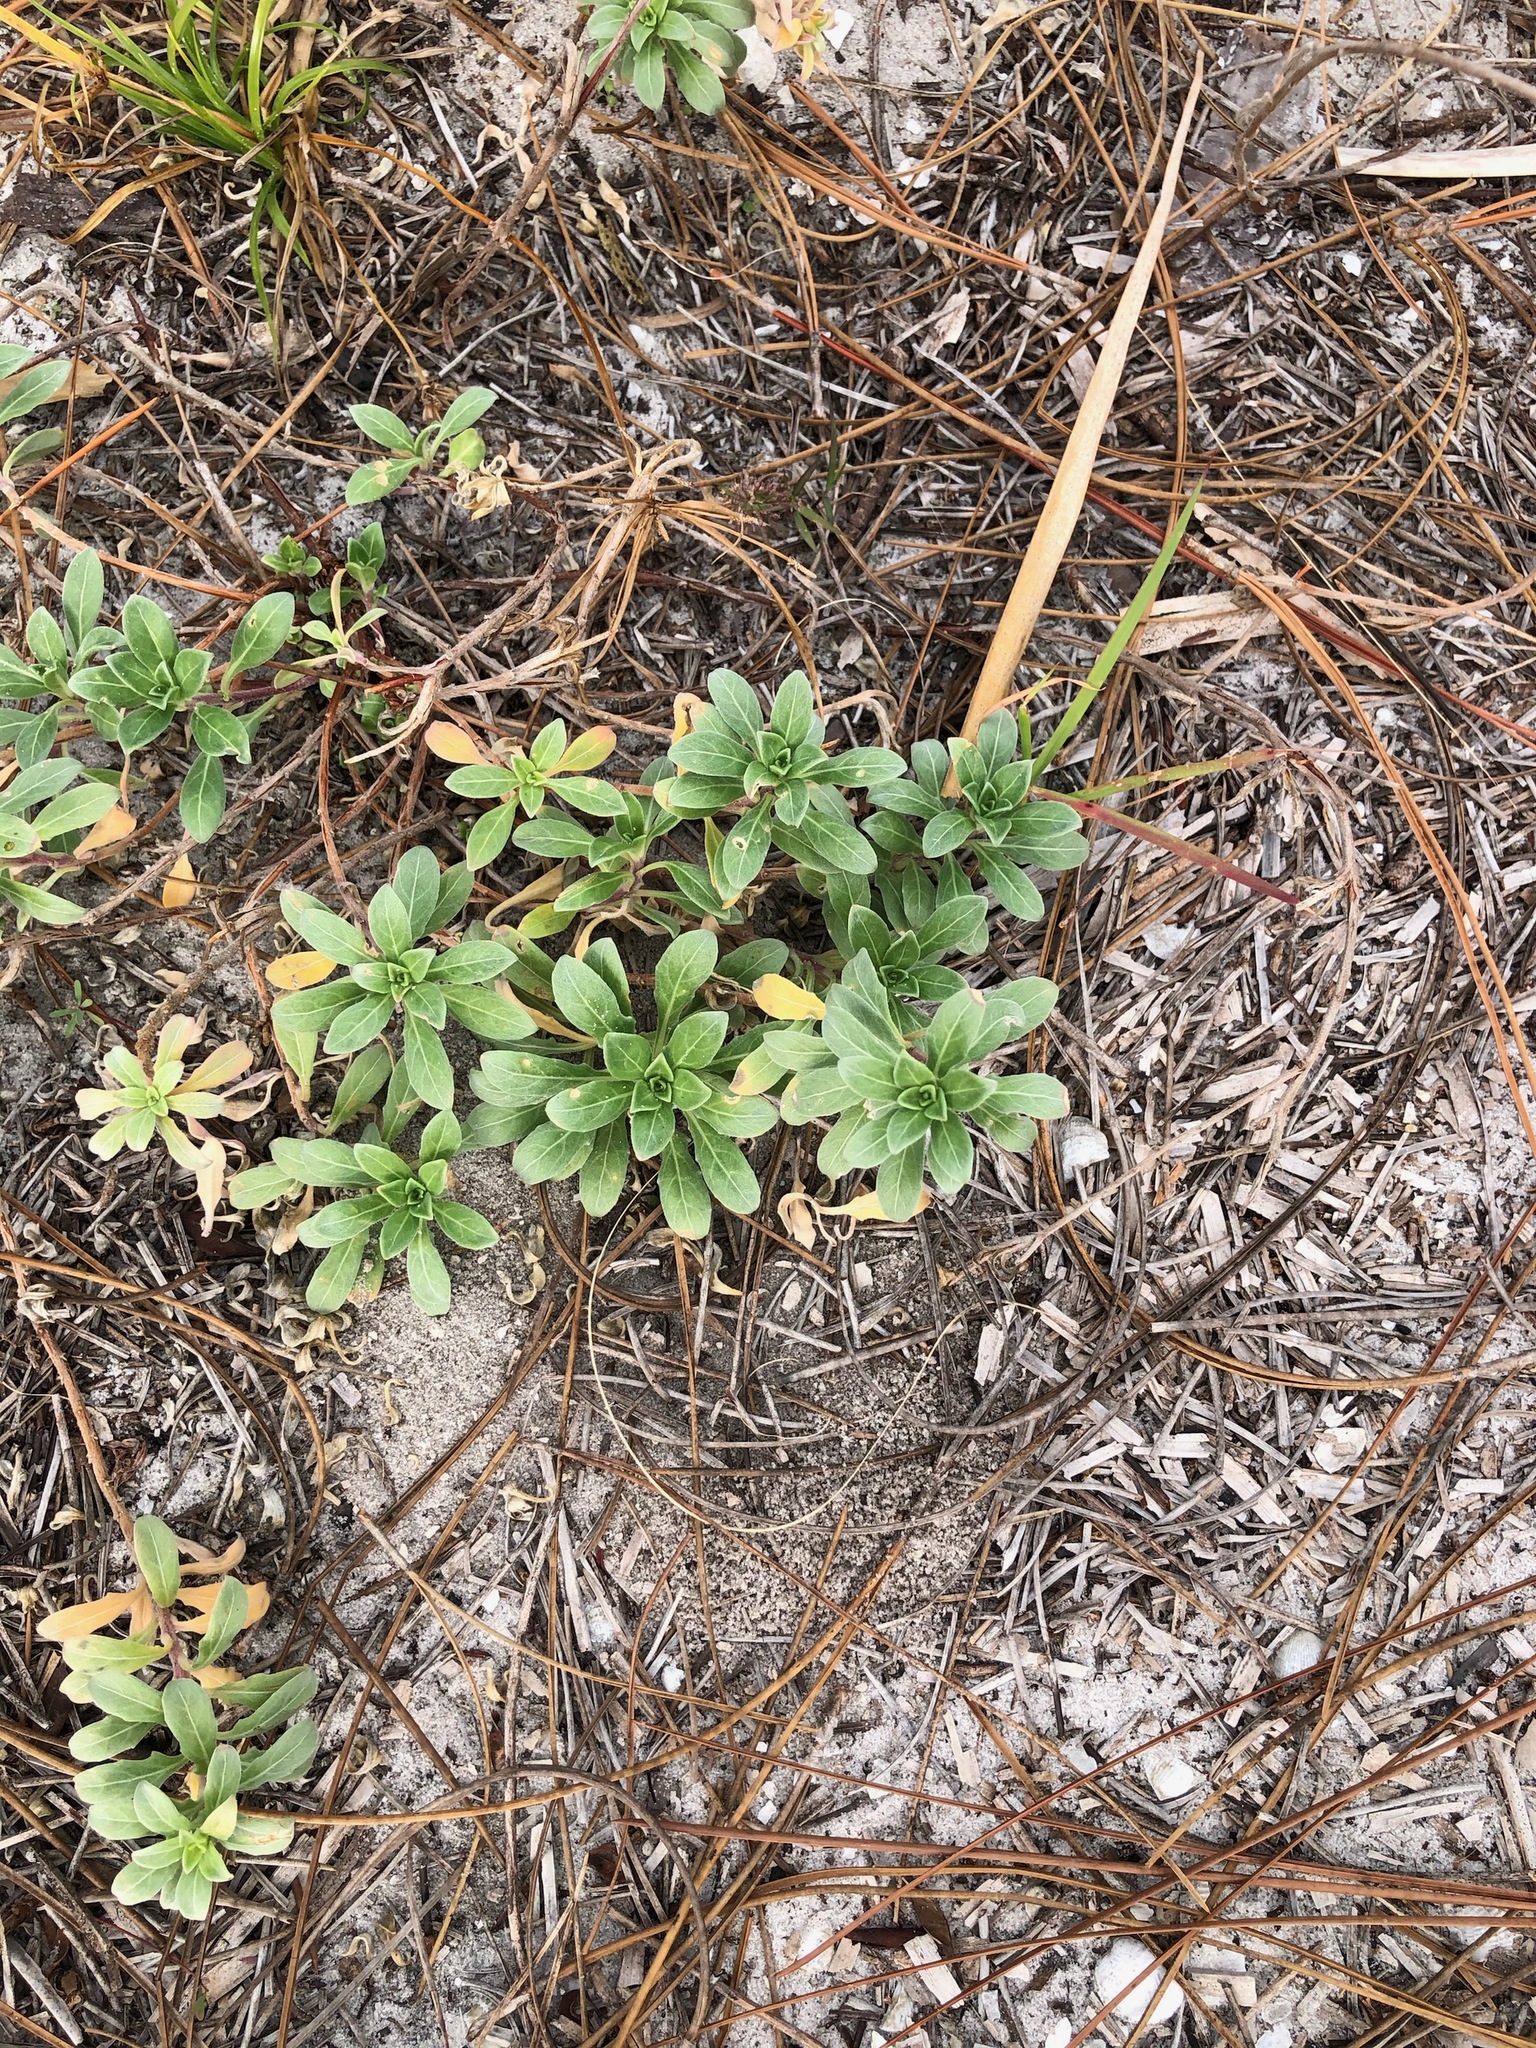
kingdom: Plantae
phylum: Tracheophyta
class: Magnoliopsida
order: Myrtales
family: Onagraceae
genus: Oenothera
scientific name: Oenothera humifusa
